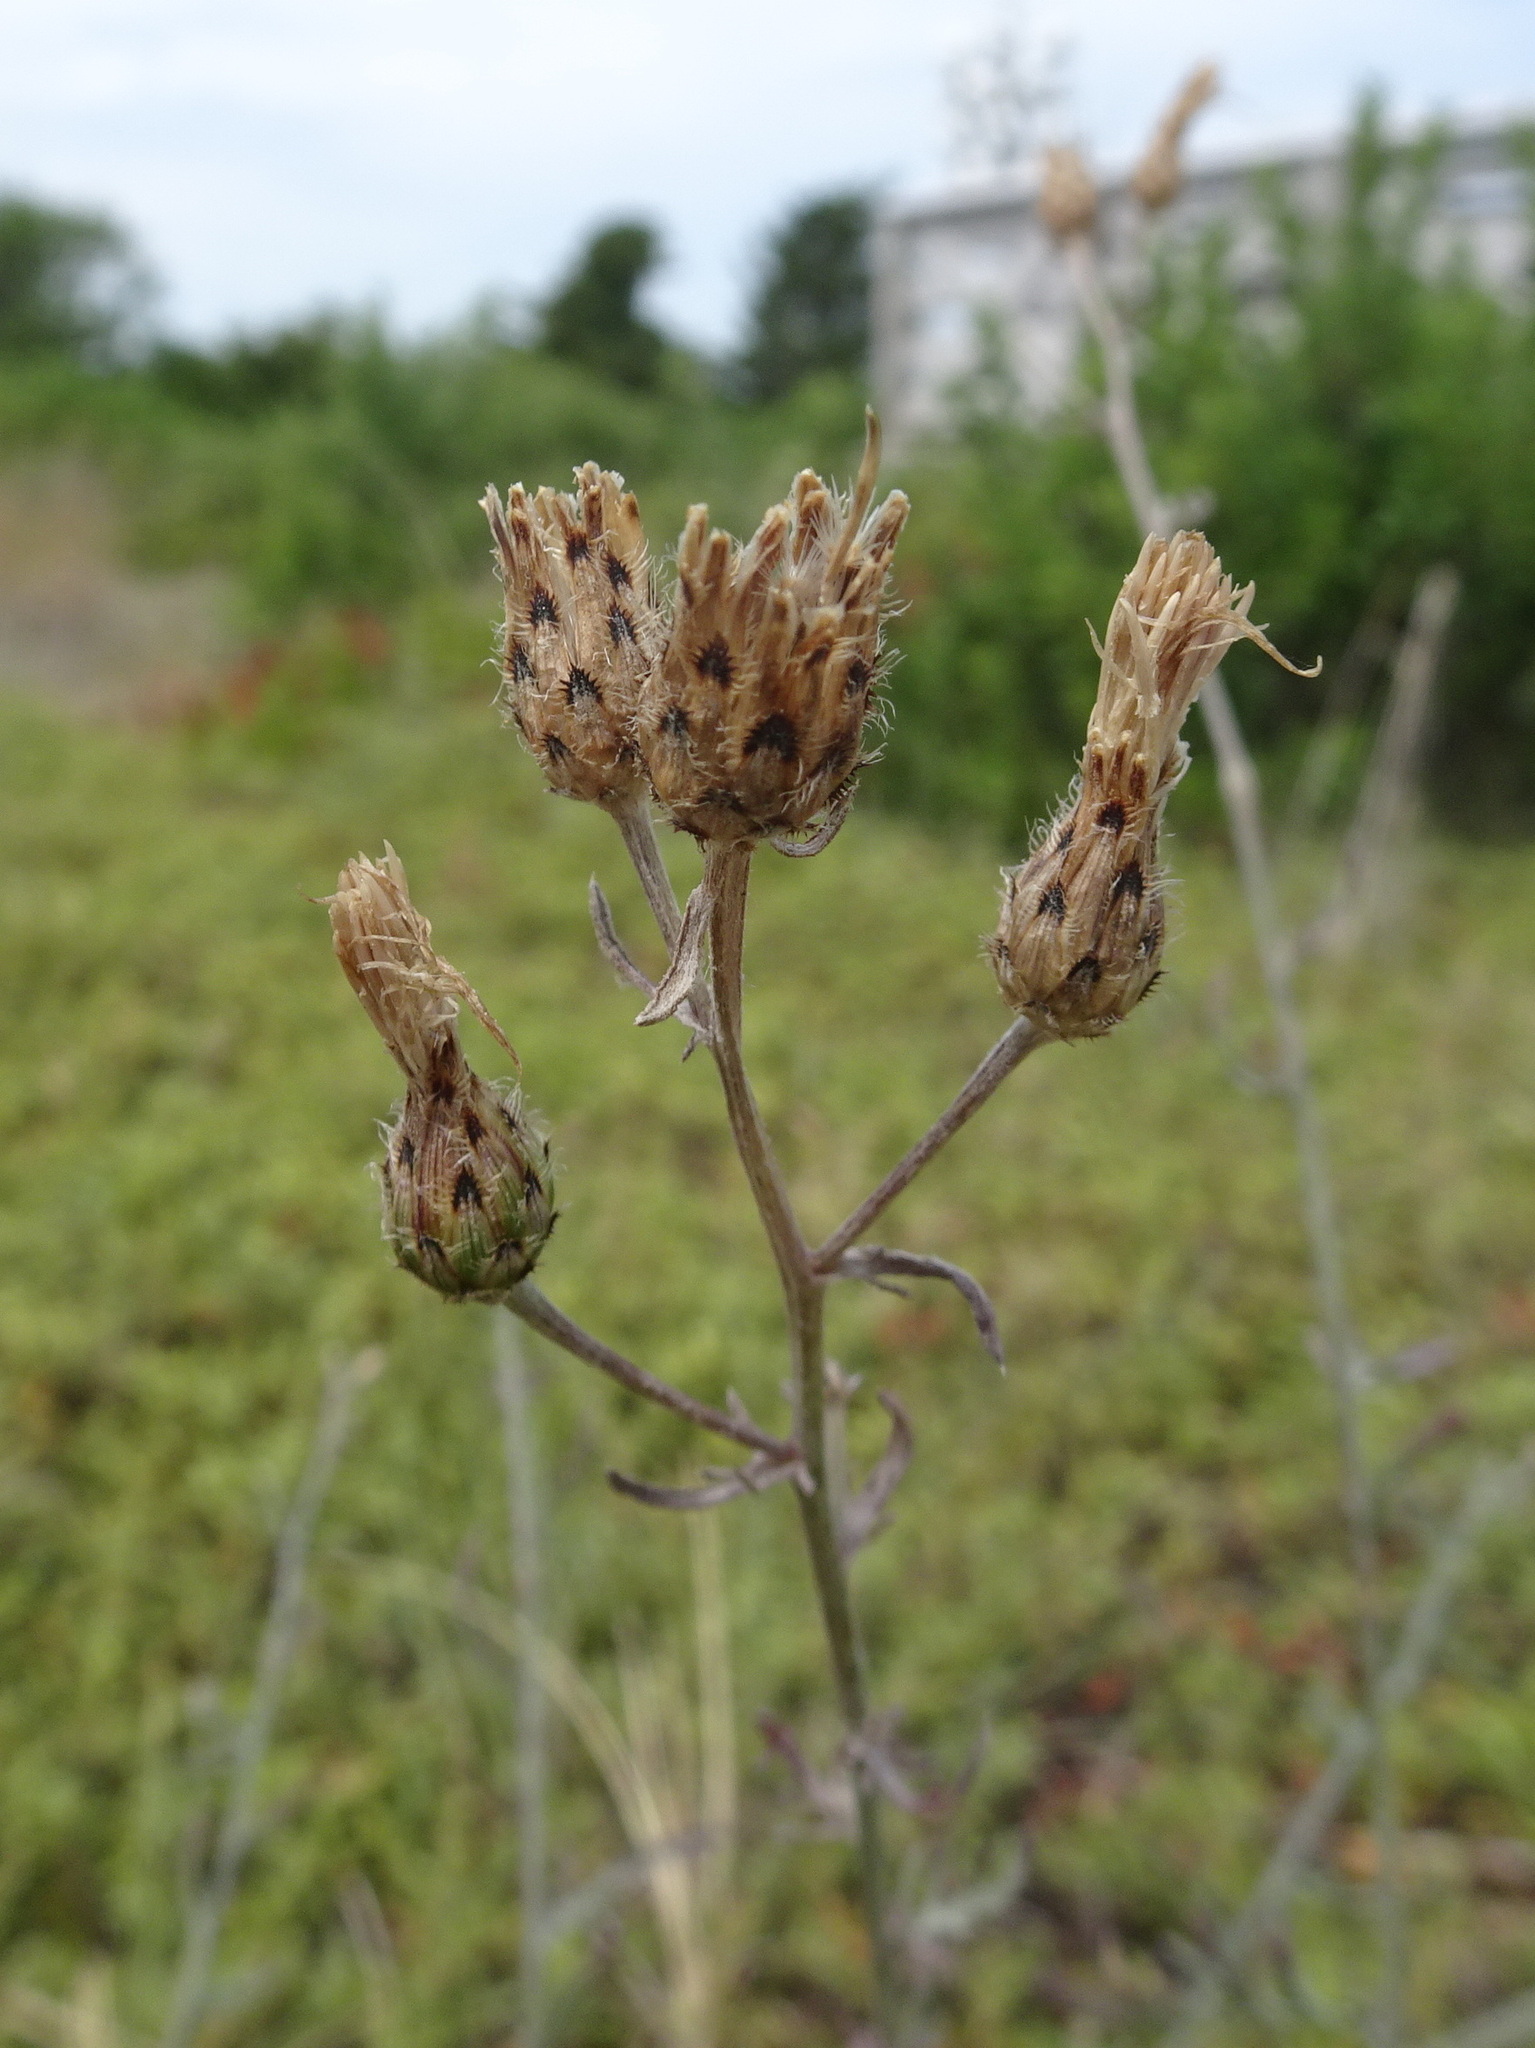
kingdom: Plantae
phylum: Tracheophyta
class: Magnoliopsida
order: Asterales
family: Asteraceae
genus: Centaurea
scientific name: Centaurea stoebe
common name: Spotted knapweed
